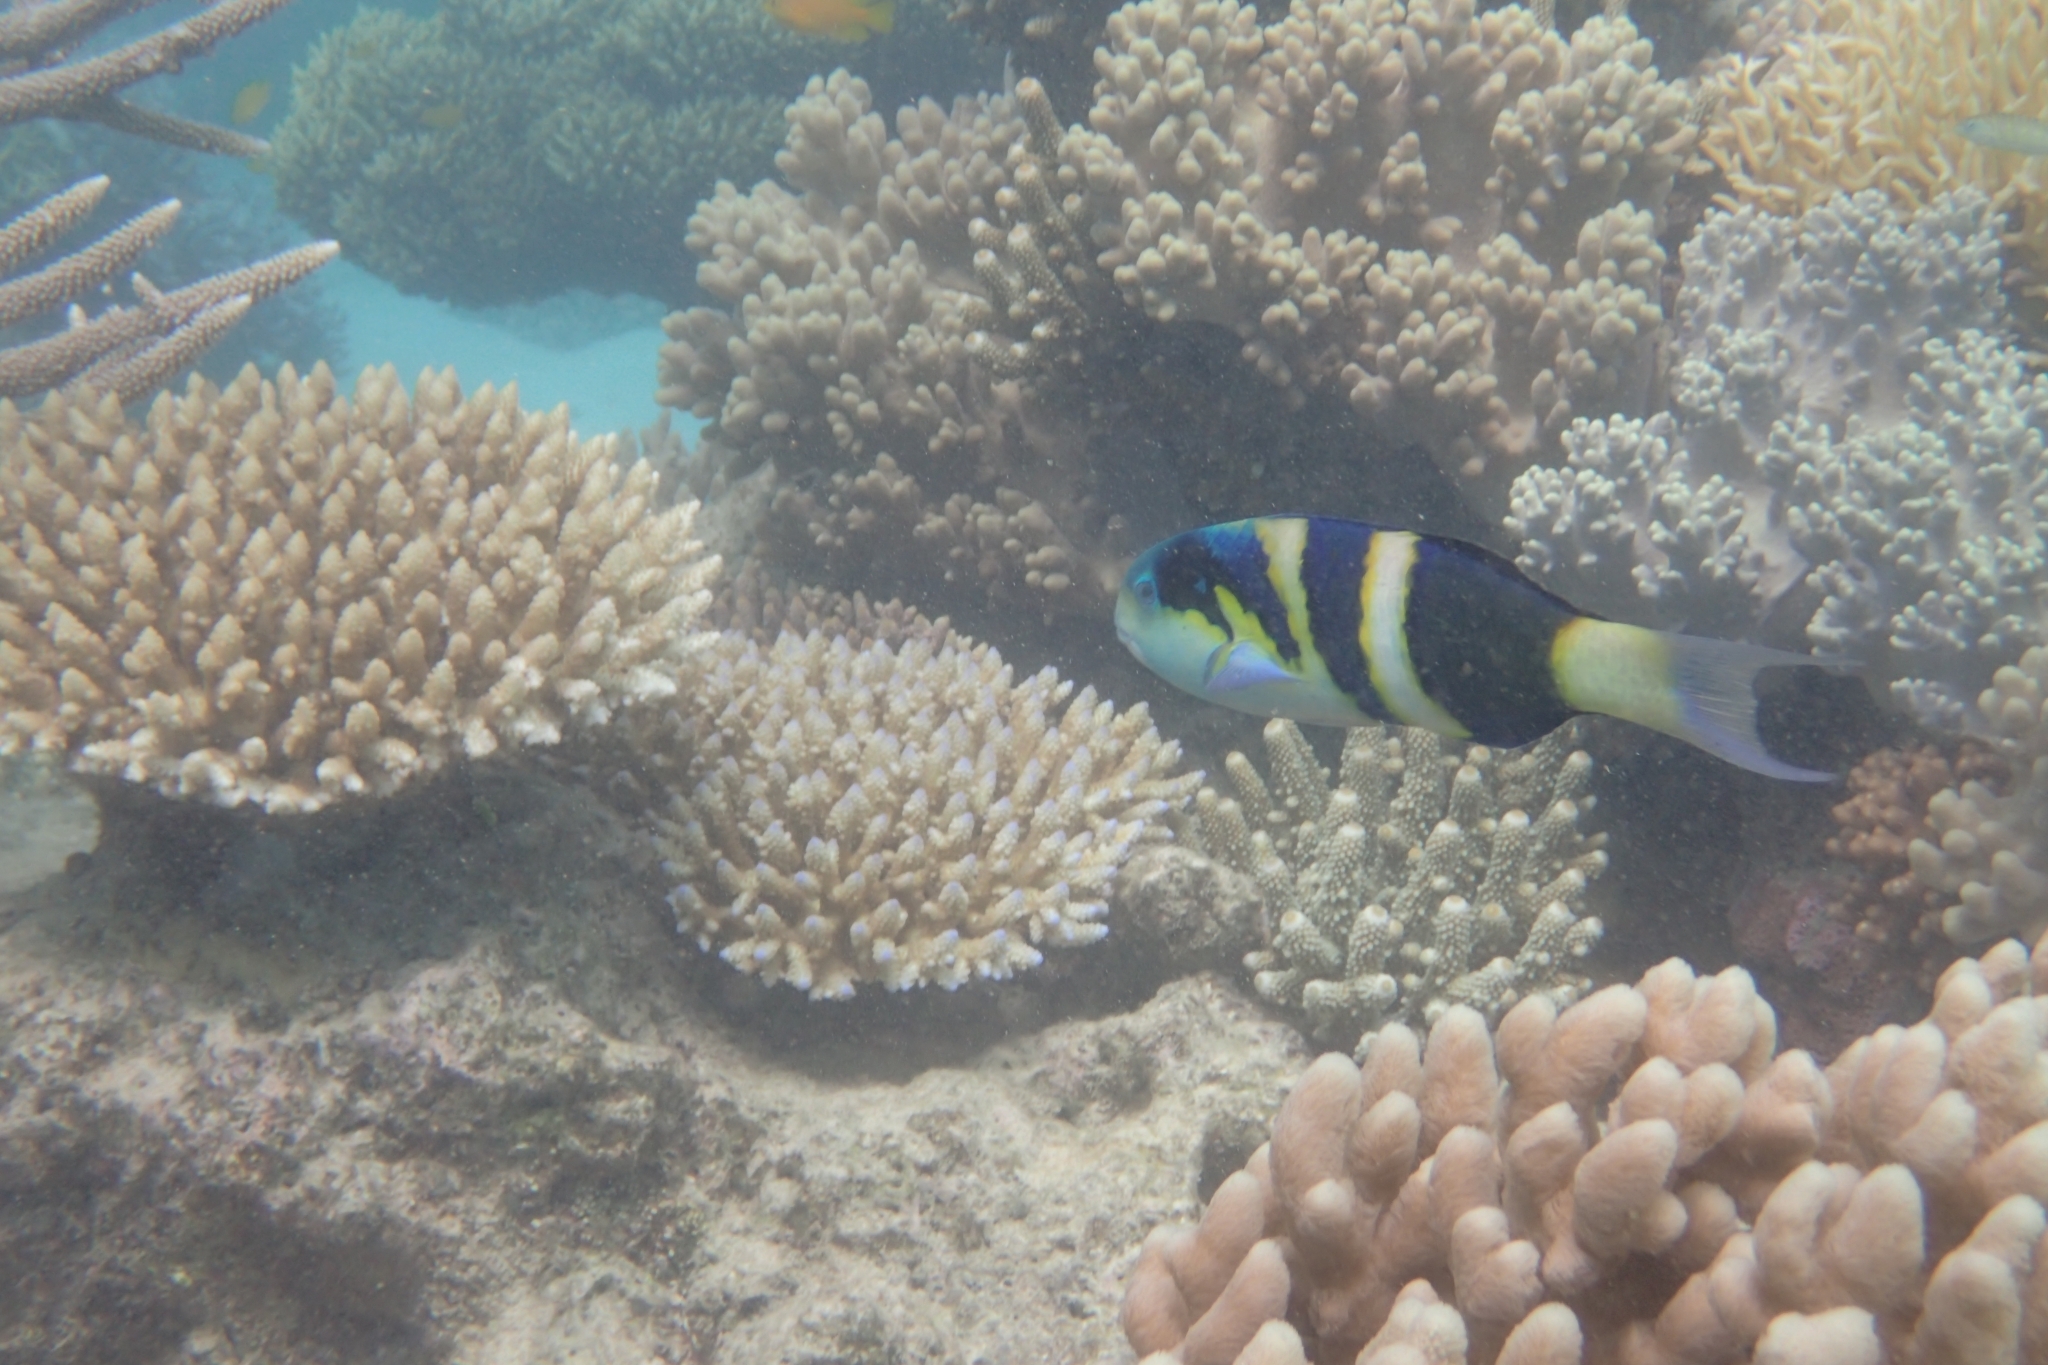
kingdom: Animalia
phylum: Chordata
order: Perciformes
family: Labridae
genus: Thalassoma
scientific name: Thalassoma nigrofasciatum
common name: Black-barred wrasse
